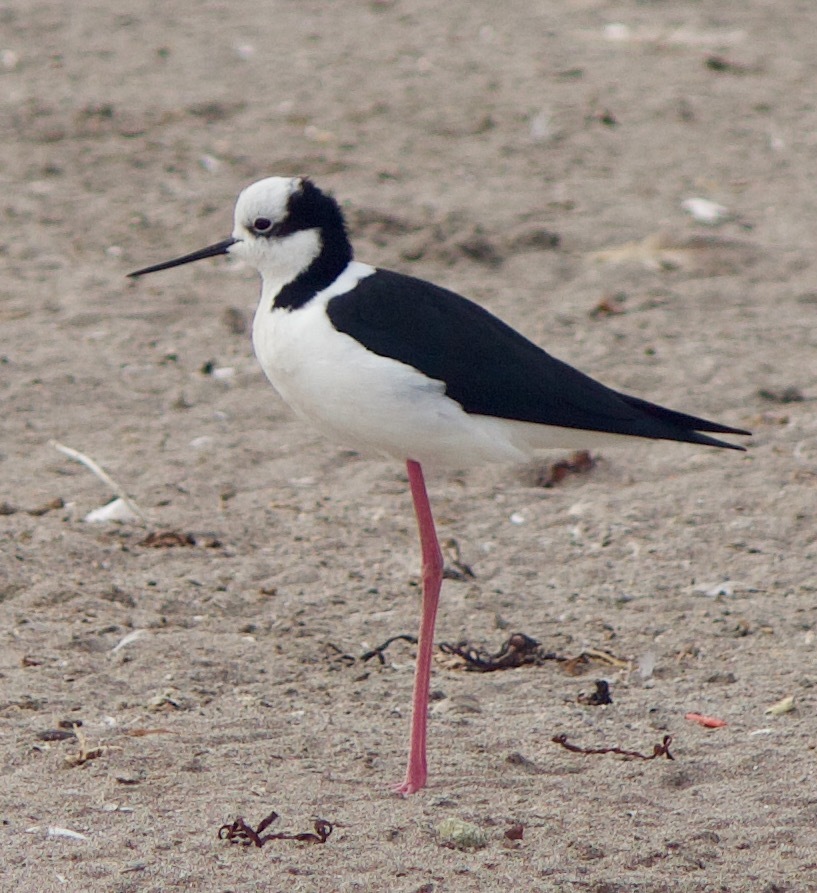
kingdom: Animalia
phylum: Chordata
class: Aves
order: Charadriiformes
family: Recurvirostridae
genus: Himantopus
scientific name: Himantopus mexicanus
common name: Black-necked stilt
